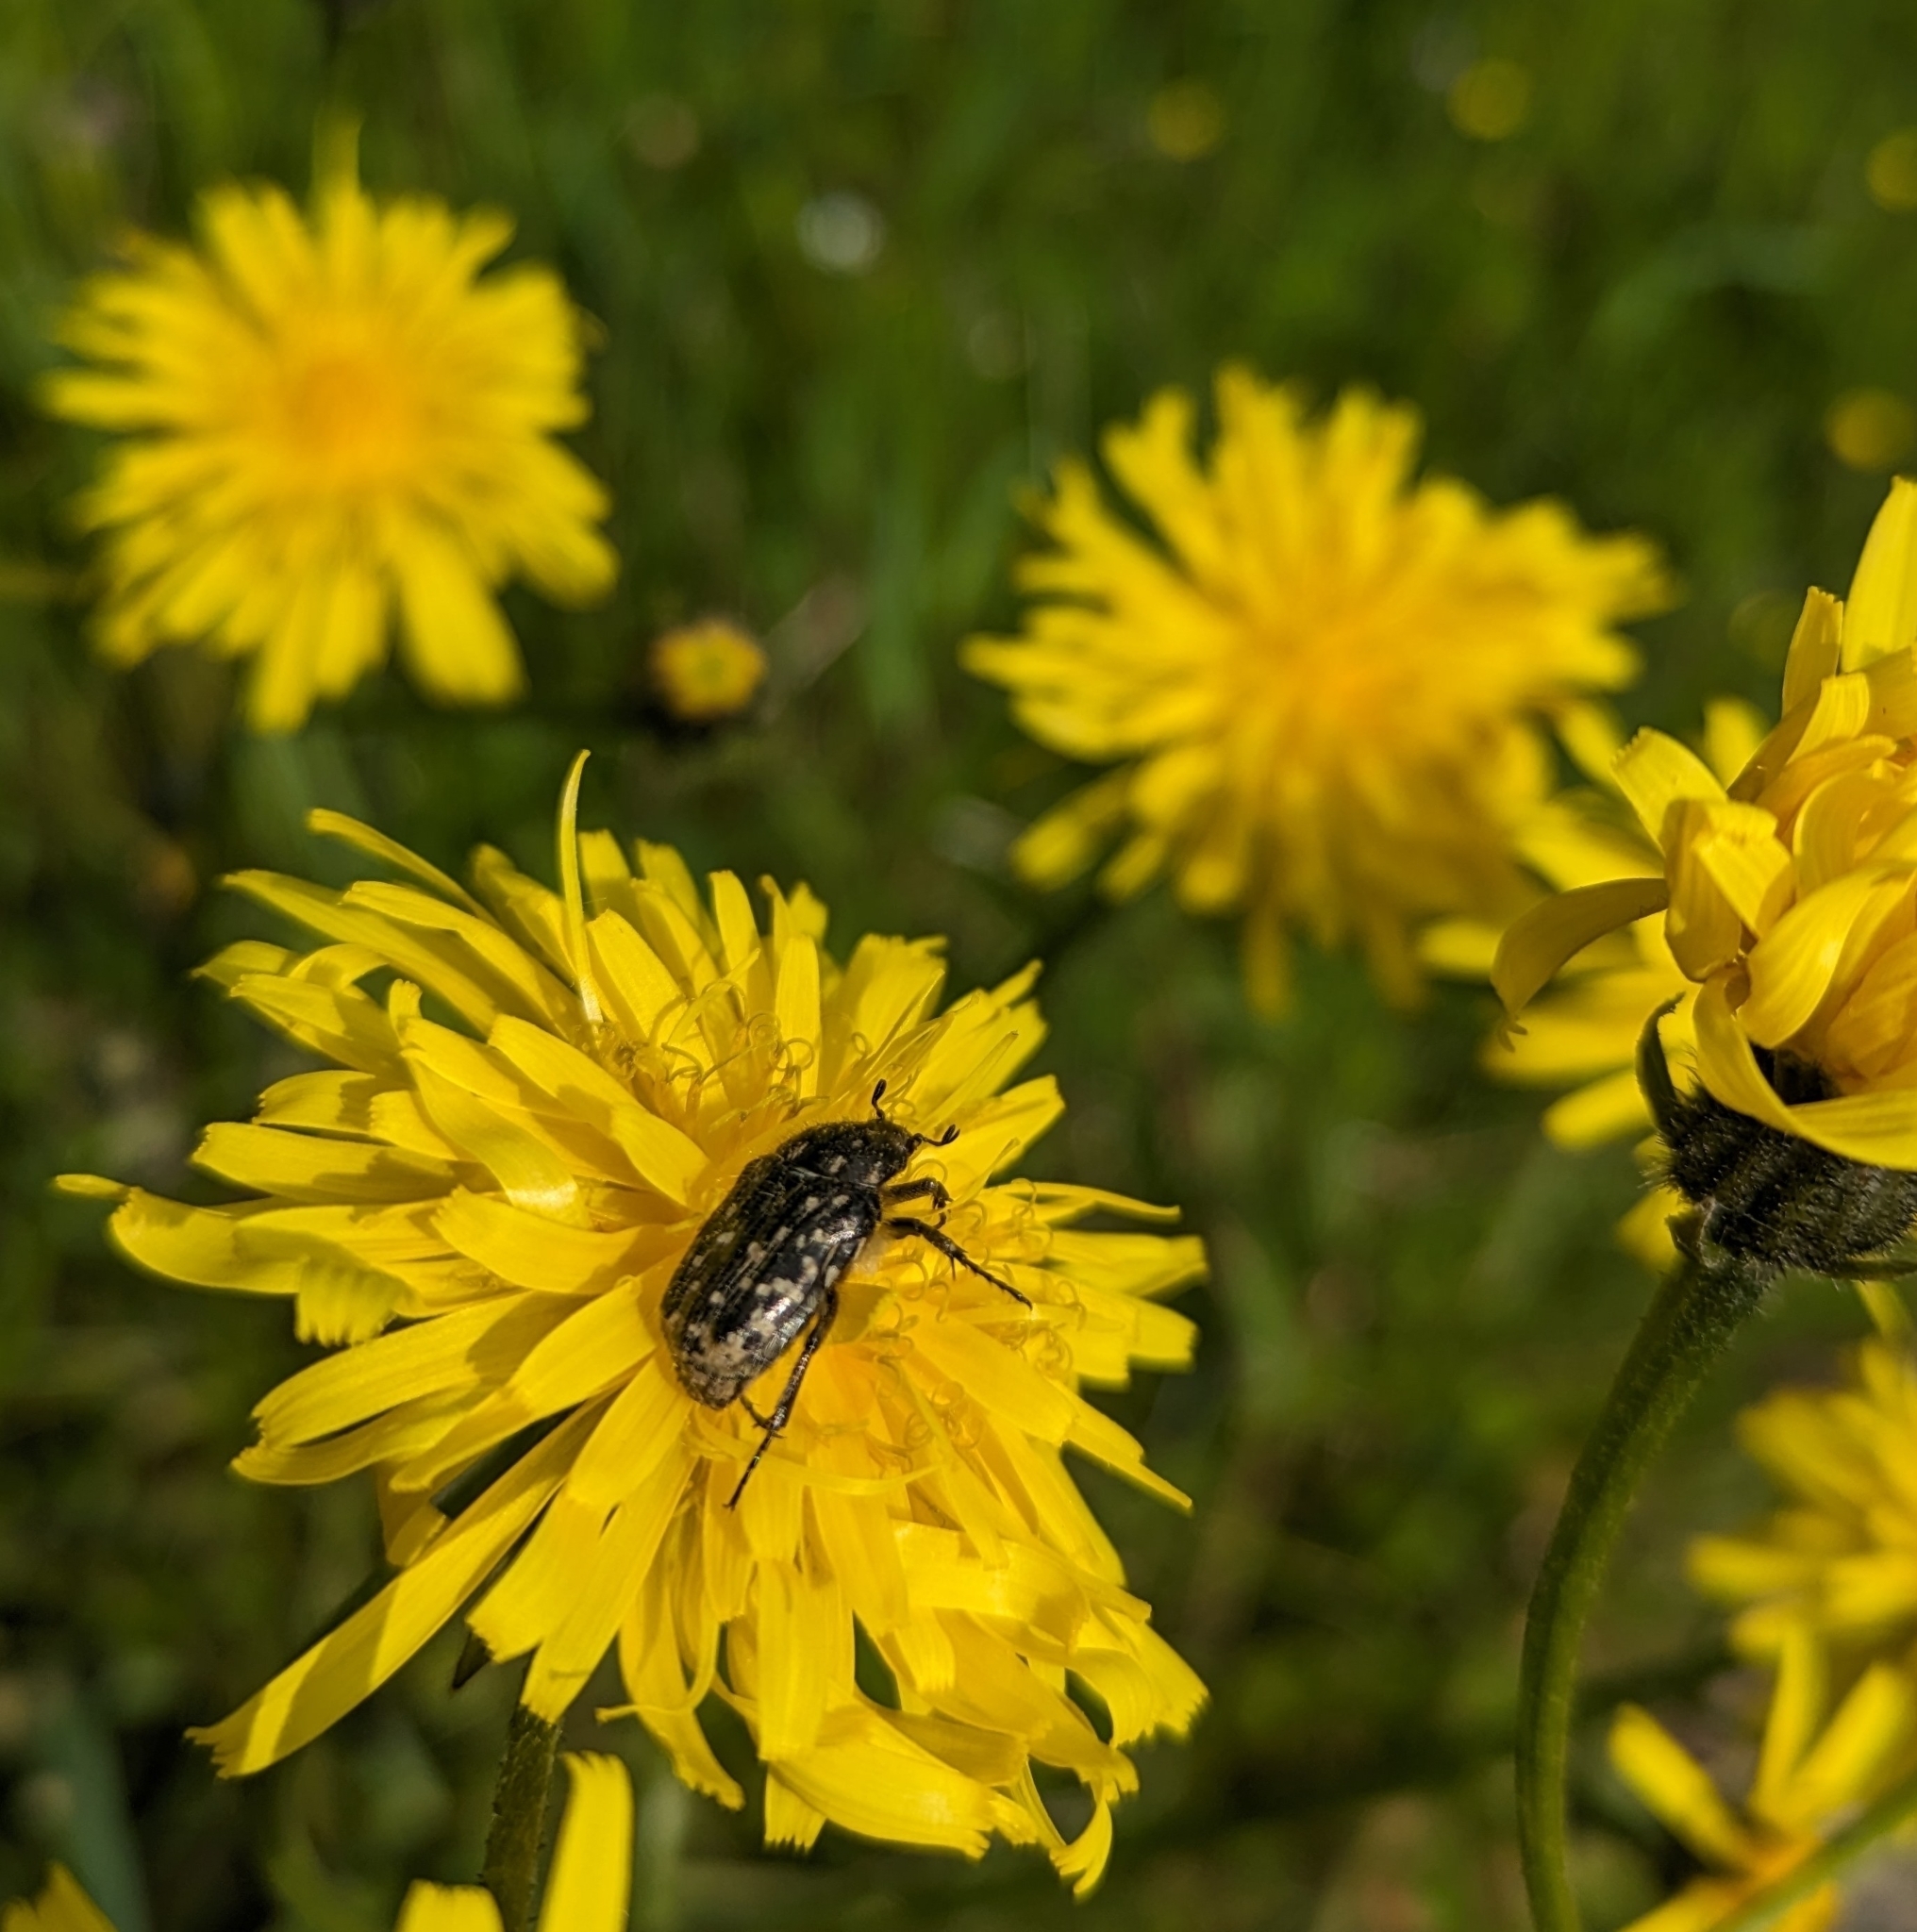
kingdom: Animalia
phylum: Arthropoda
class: Insecta
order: Coleoptera
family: Scarabaeidae
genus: Oxythyrea
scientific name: Oxythyrea funesta
